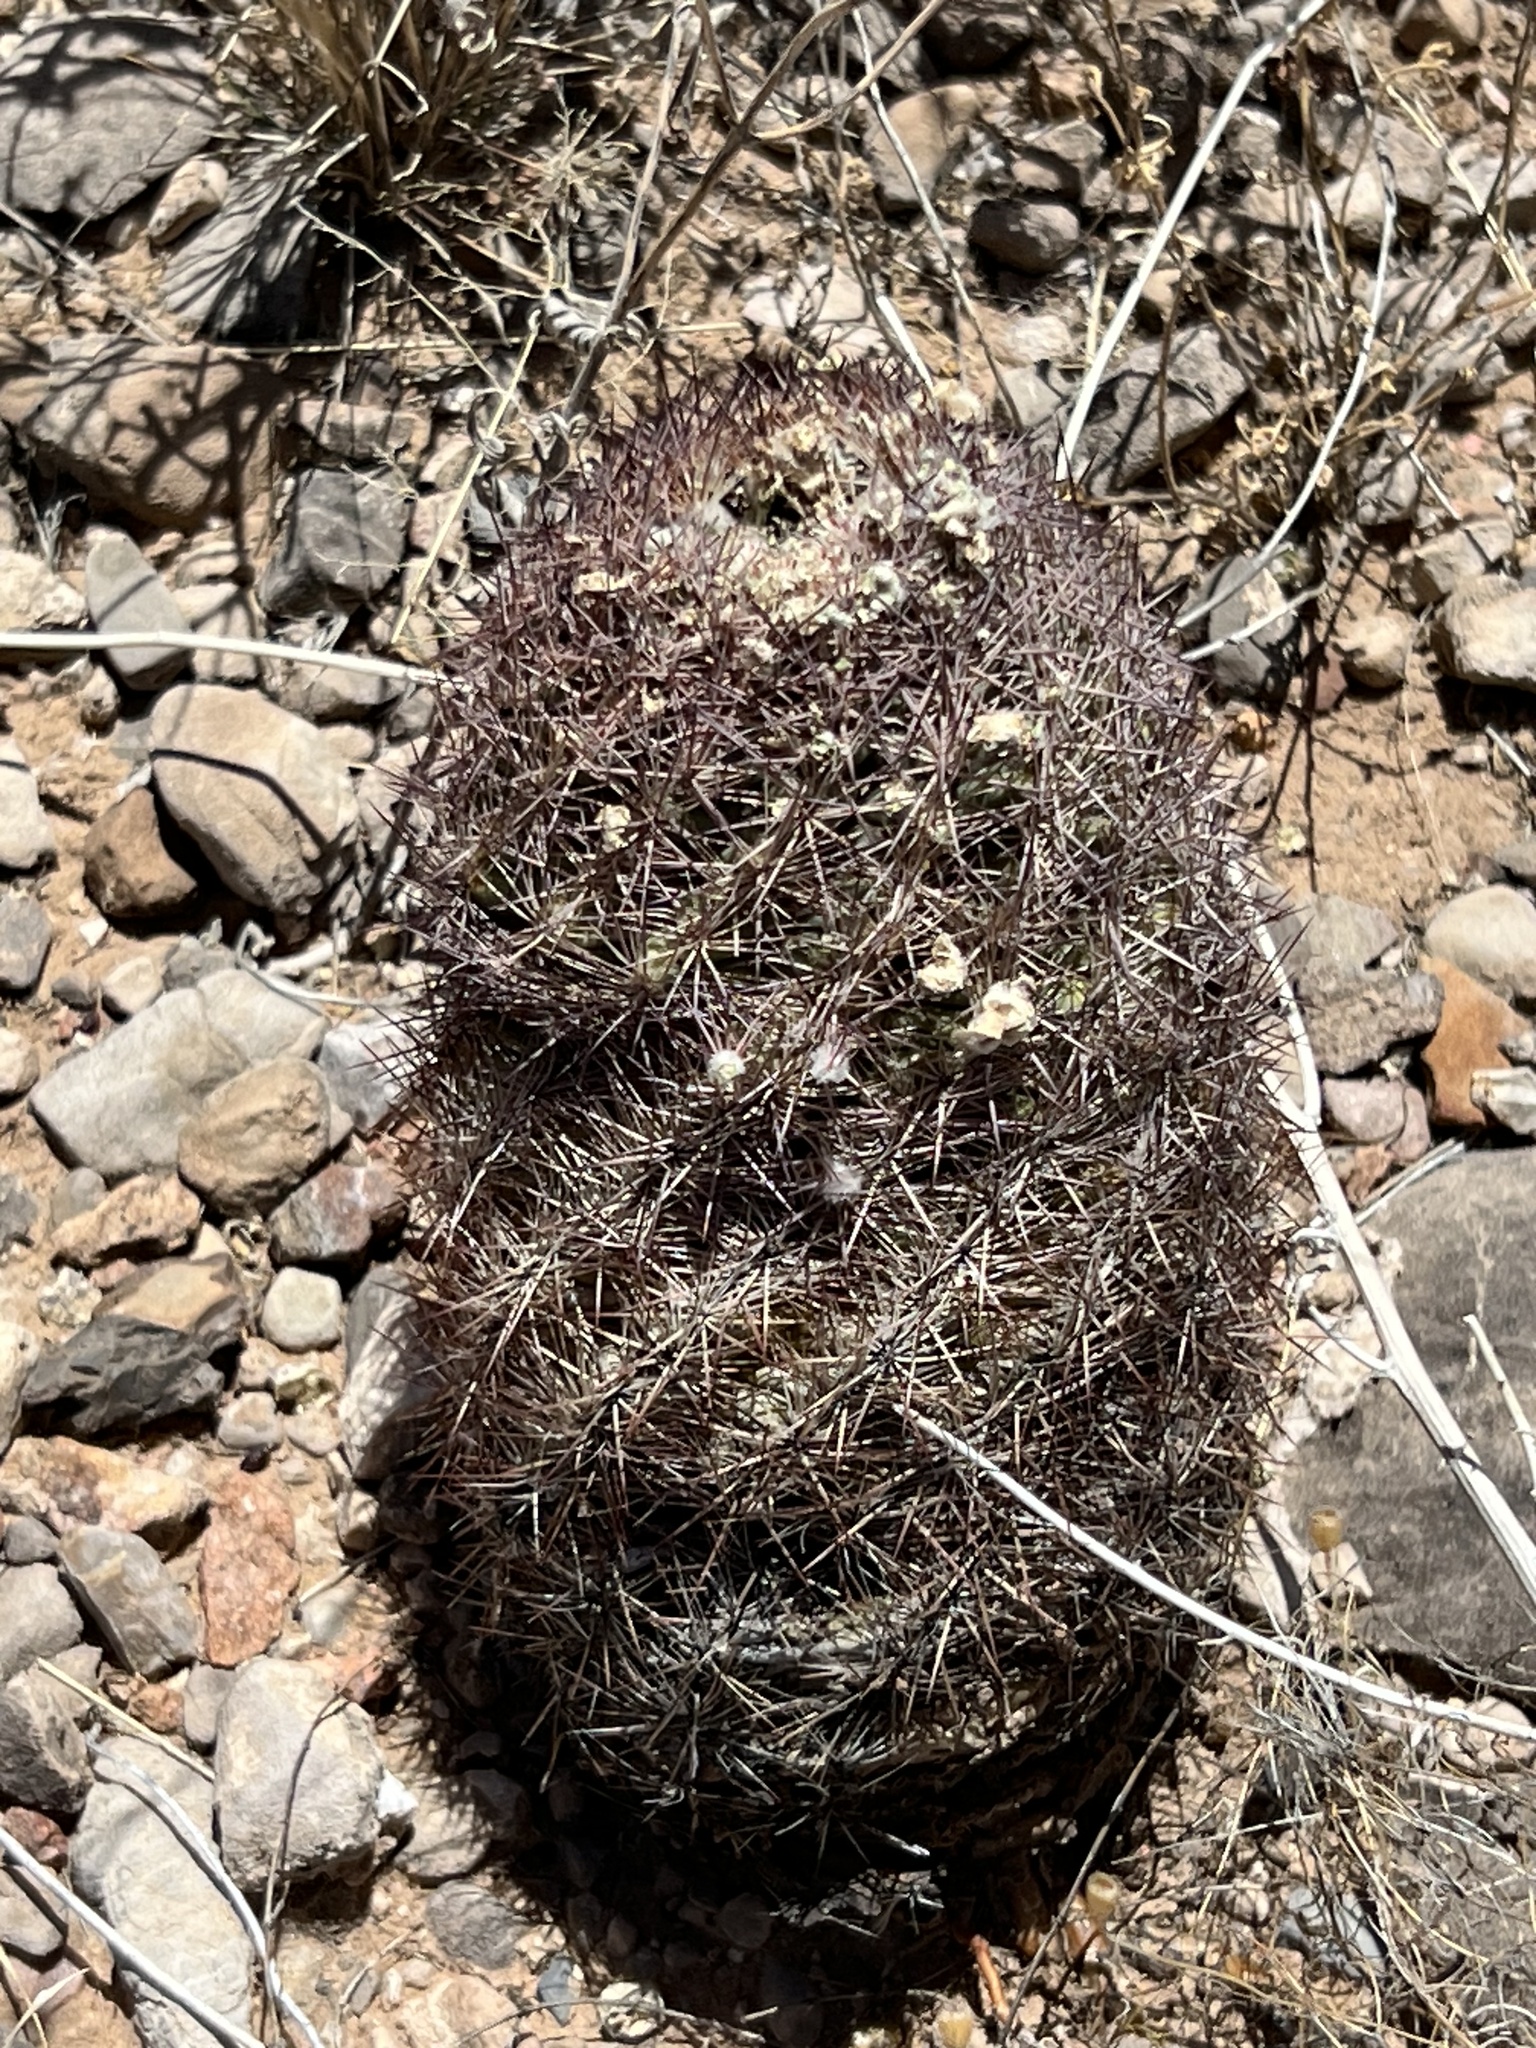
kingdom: Plantae
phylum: Tracheophyta
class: Magnoliopsida
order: Caryophyllales
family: Cactaceae
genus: Sclerocactus
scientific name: Sclerocactus intertextus
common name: White fish-hook cactus
